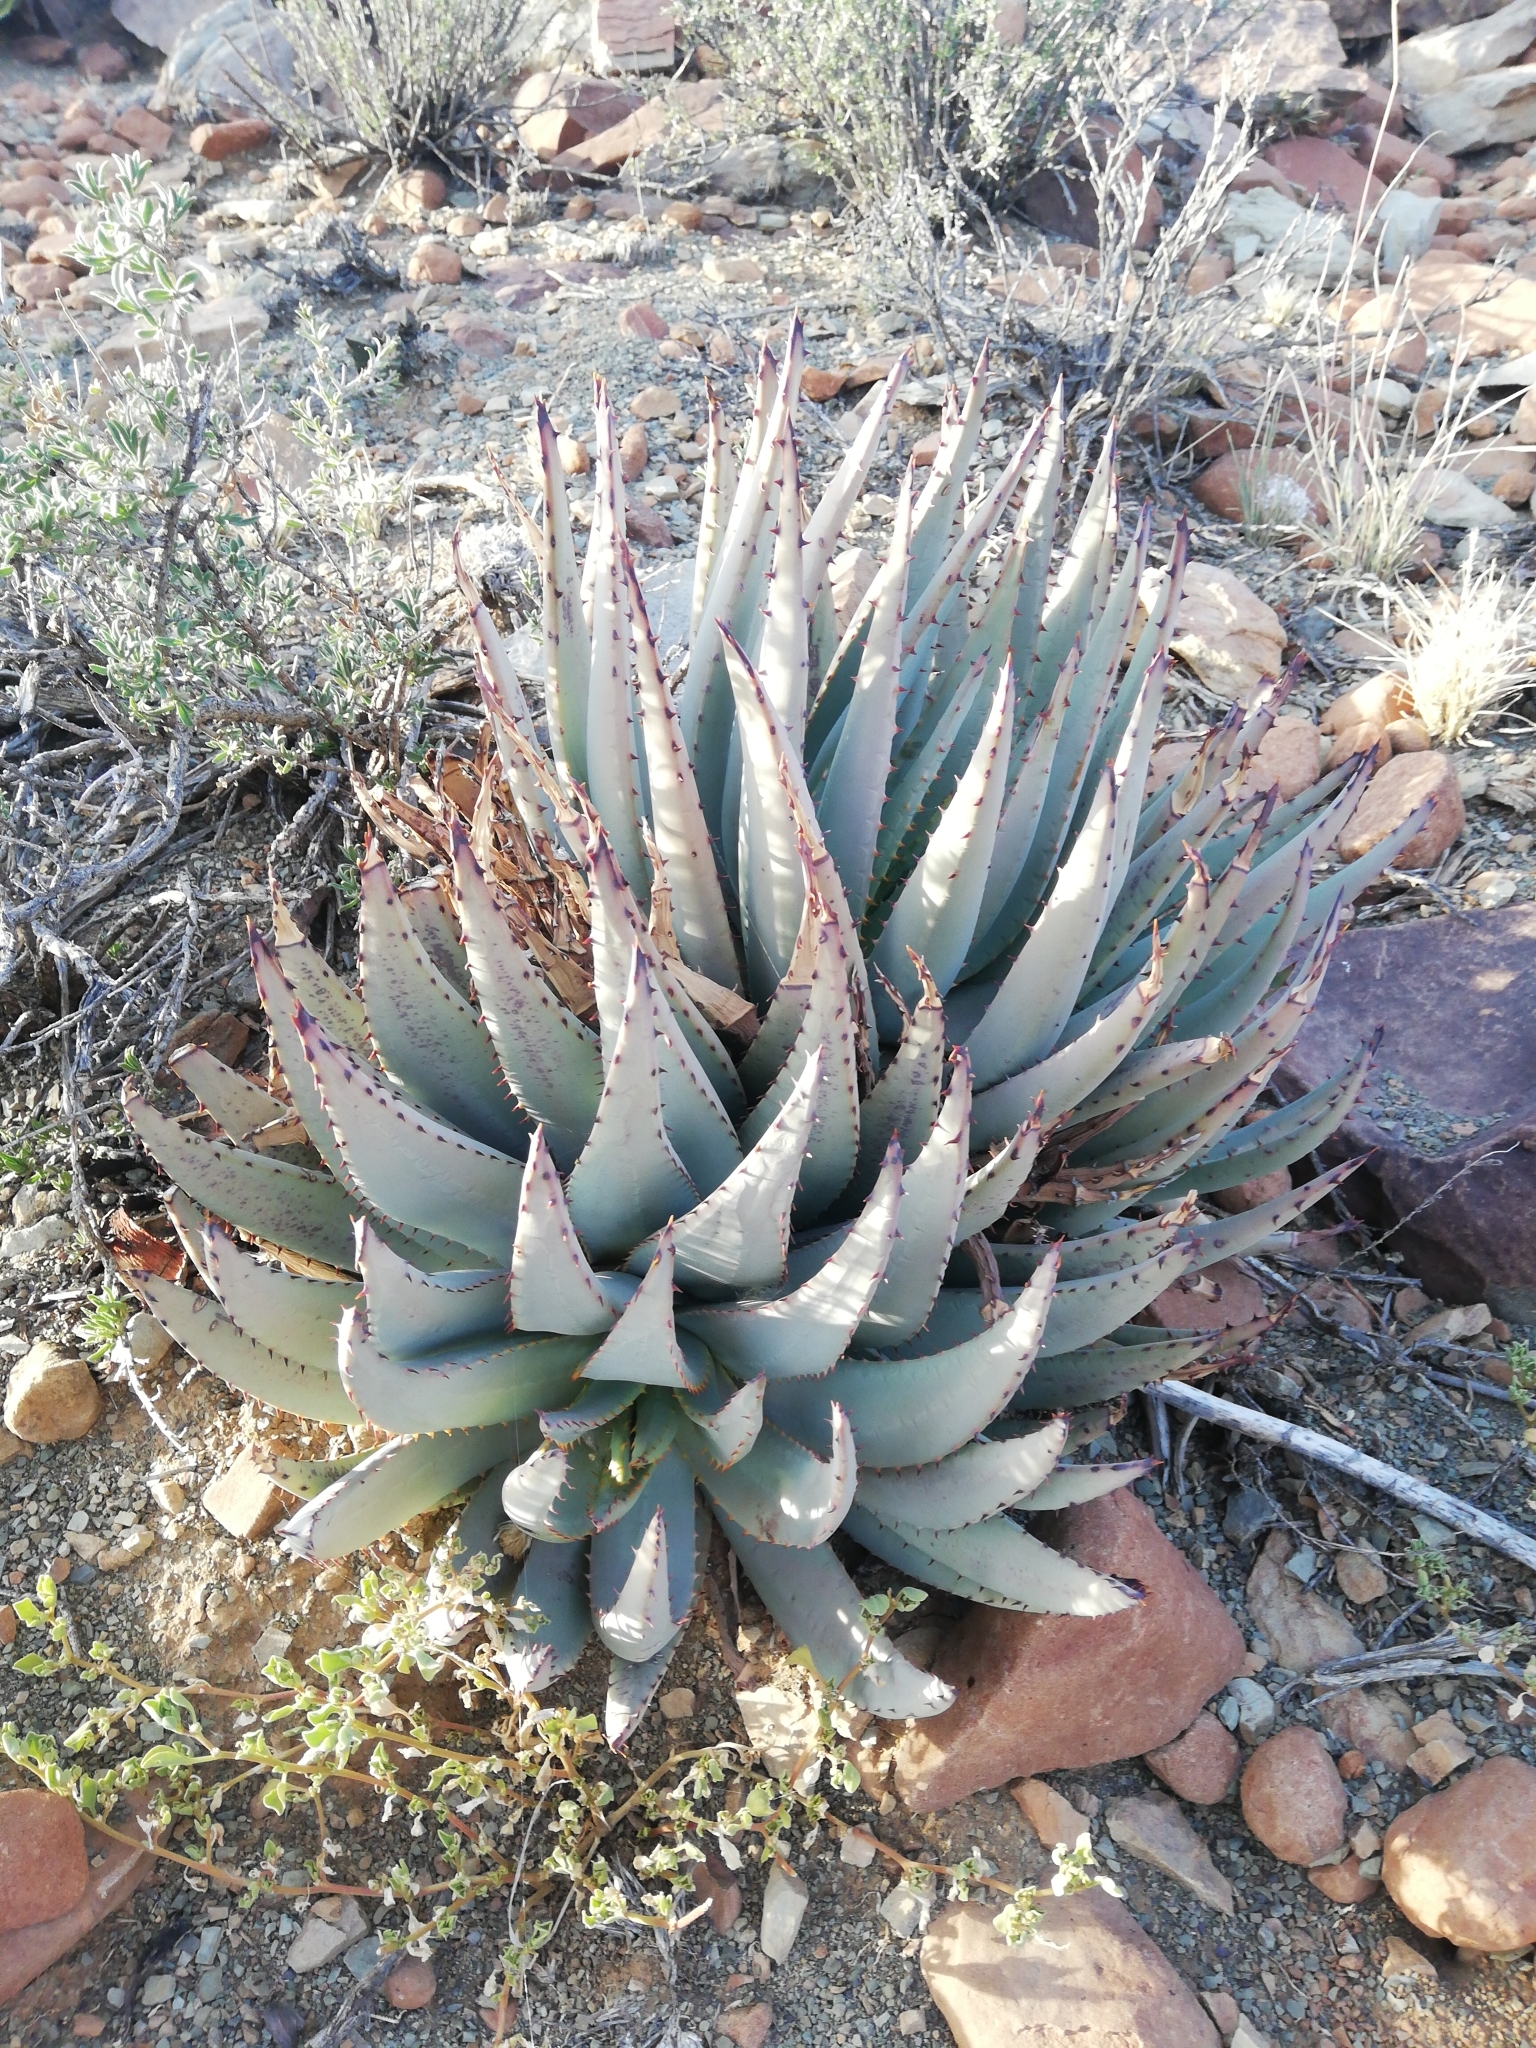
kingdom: Plantae
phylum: Tracheophyta
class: Liliopsida
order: Asparagales
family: Asphodelaceae
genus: Aloe
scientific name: Aloe claviflora
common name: Cannon aloe
